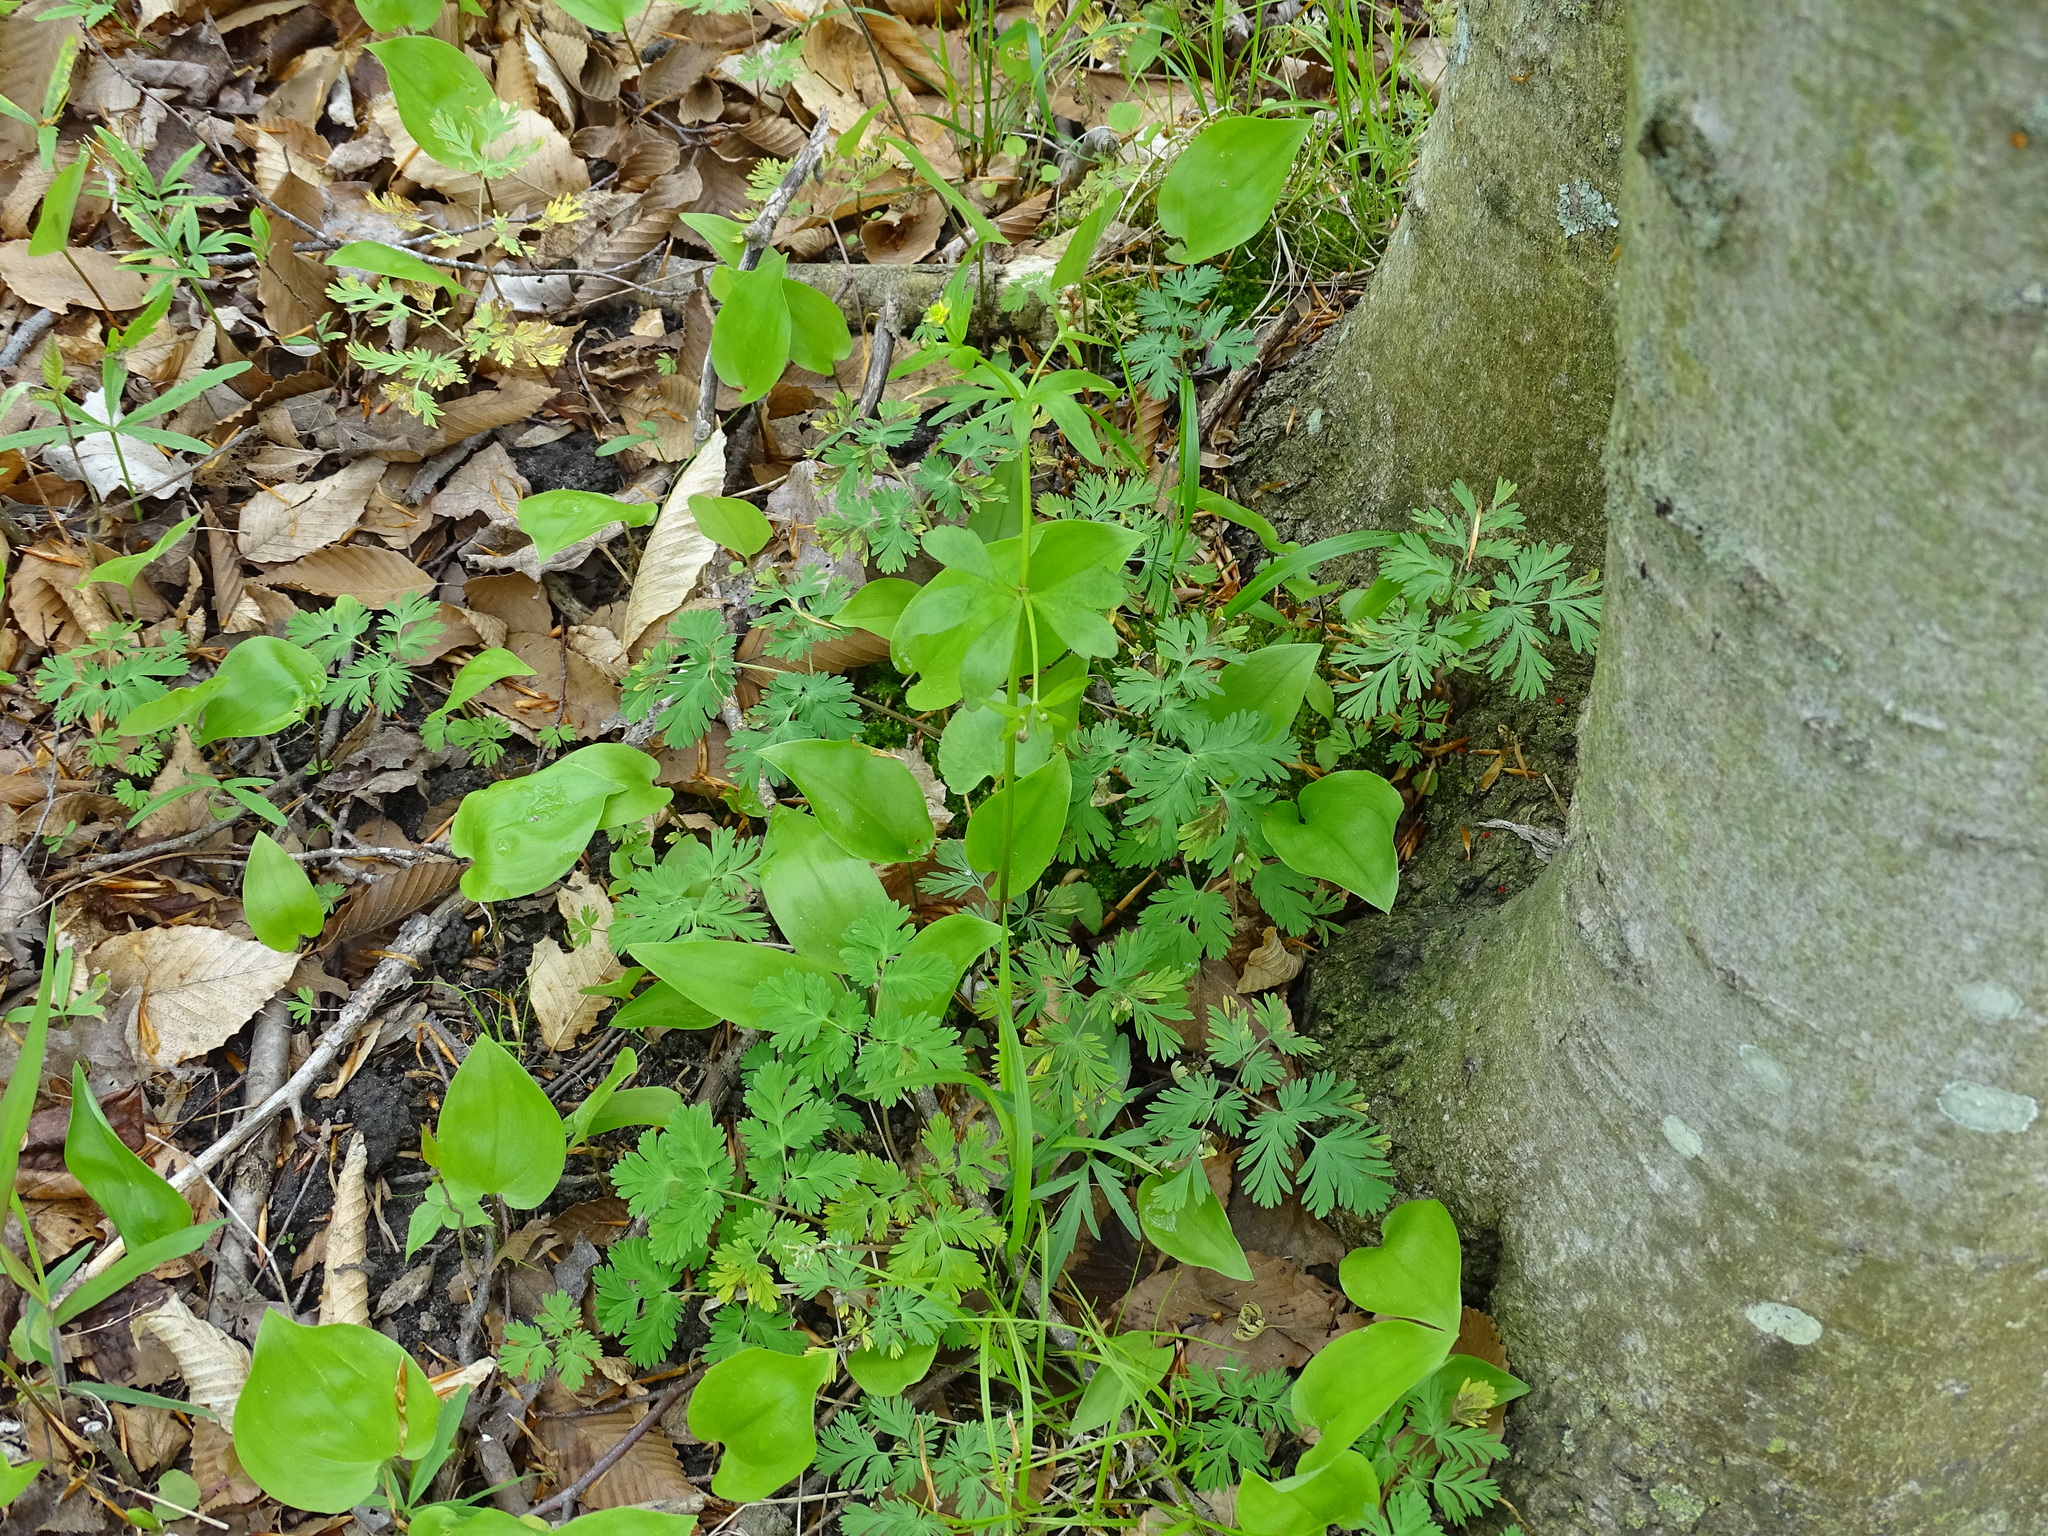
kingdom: Plantae
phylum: Tracheophyta
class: Magnoliopsida
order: Ranunculales
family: Ranunculaceae
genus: Ranunculus
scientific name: Ranunculus abortivus
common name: Early wood buttercup
